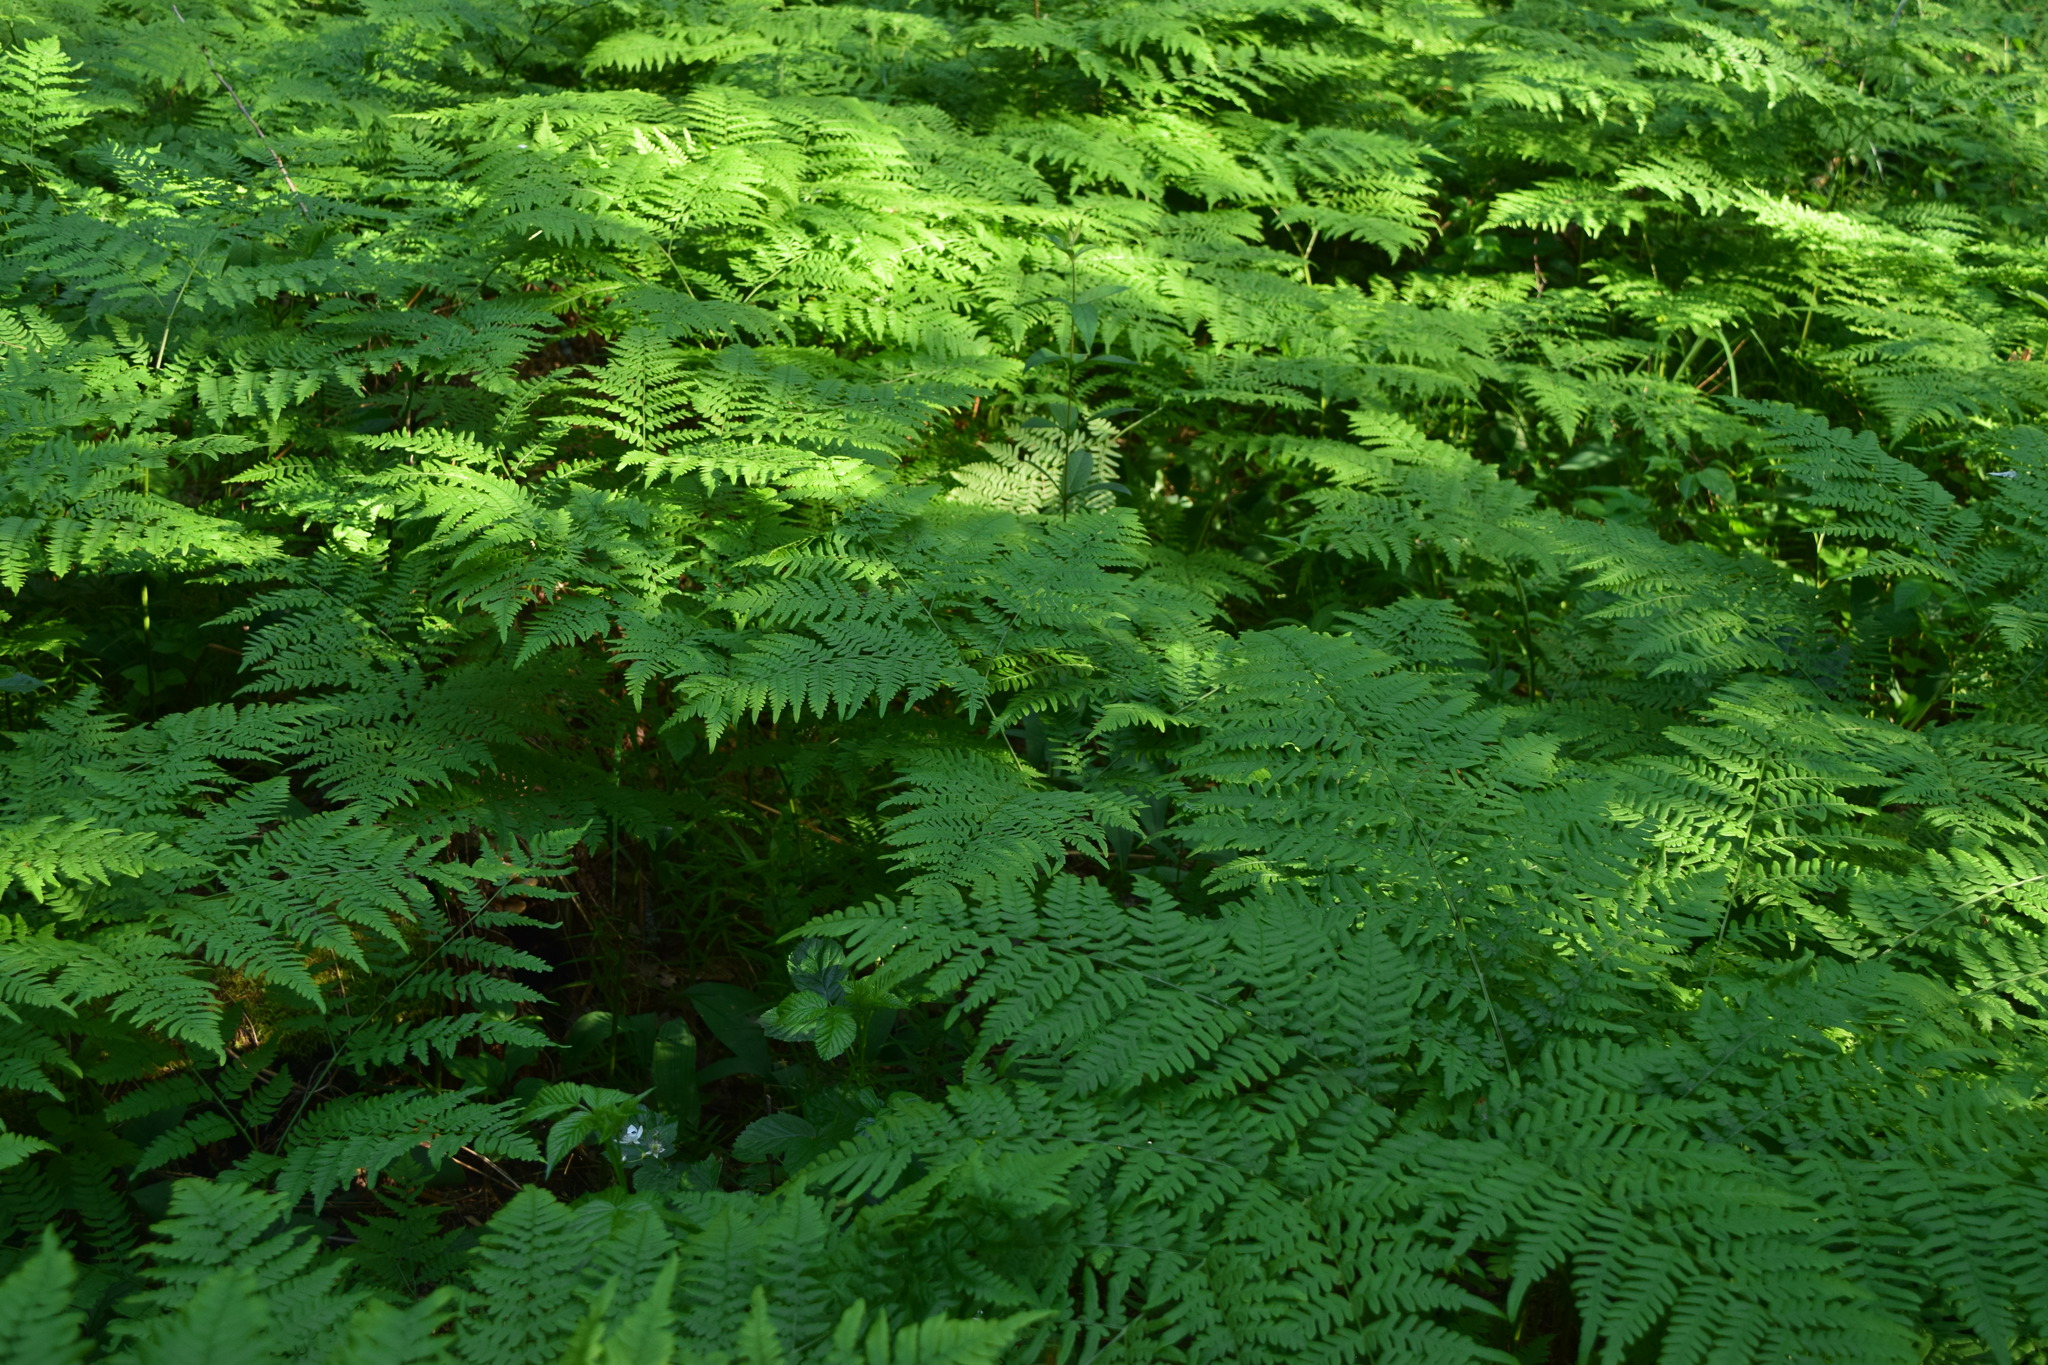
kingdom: Plantae
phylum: Tracheophyta
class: Polypodiopsida
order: Polypodiales
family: Dennstaedtiaceae
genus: Pteridium
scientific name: Pteridium aquilinum
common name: Bracken
